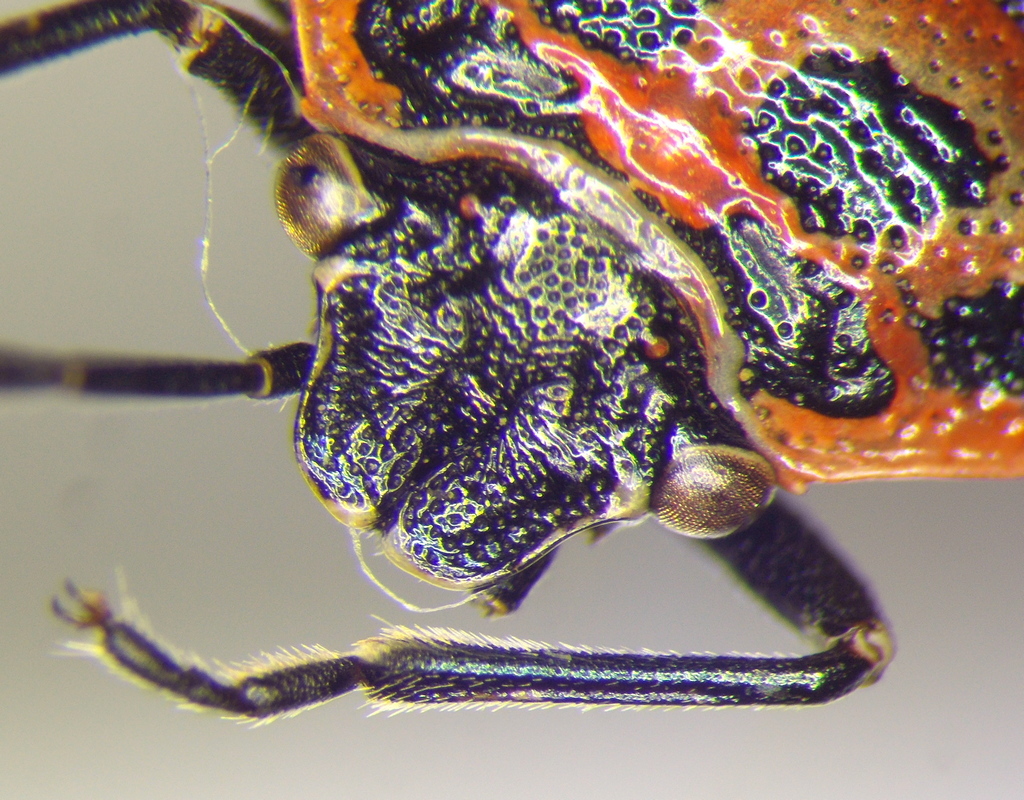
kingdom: Animalia
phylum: Arthropoda
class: Insecta
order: Hemiptera
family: Pentatomidae
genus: Eurydema
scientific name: Eurydema ornata
